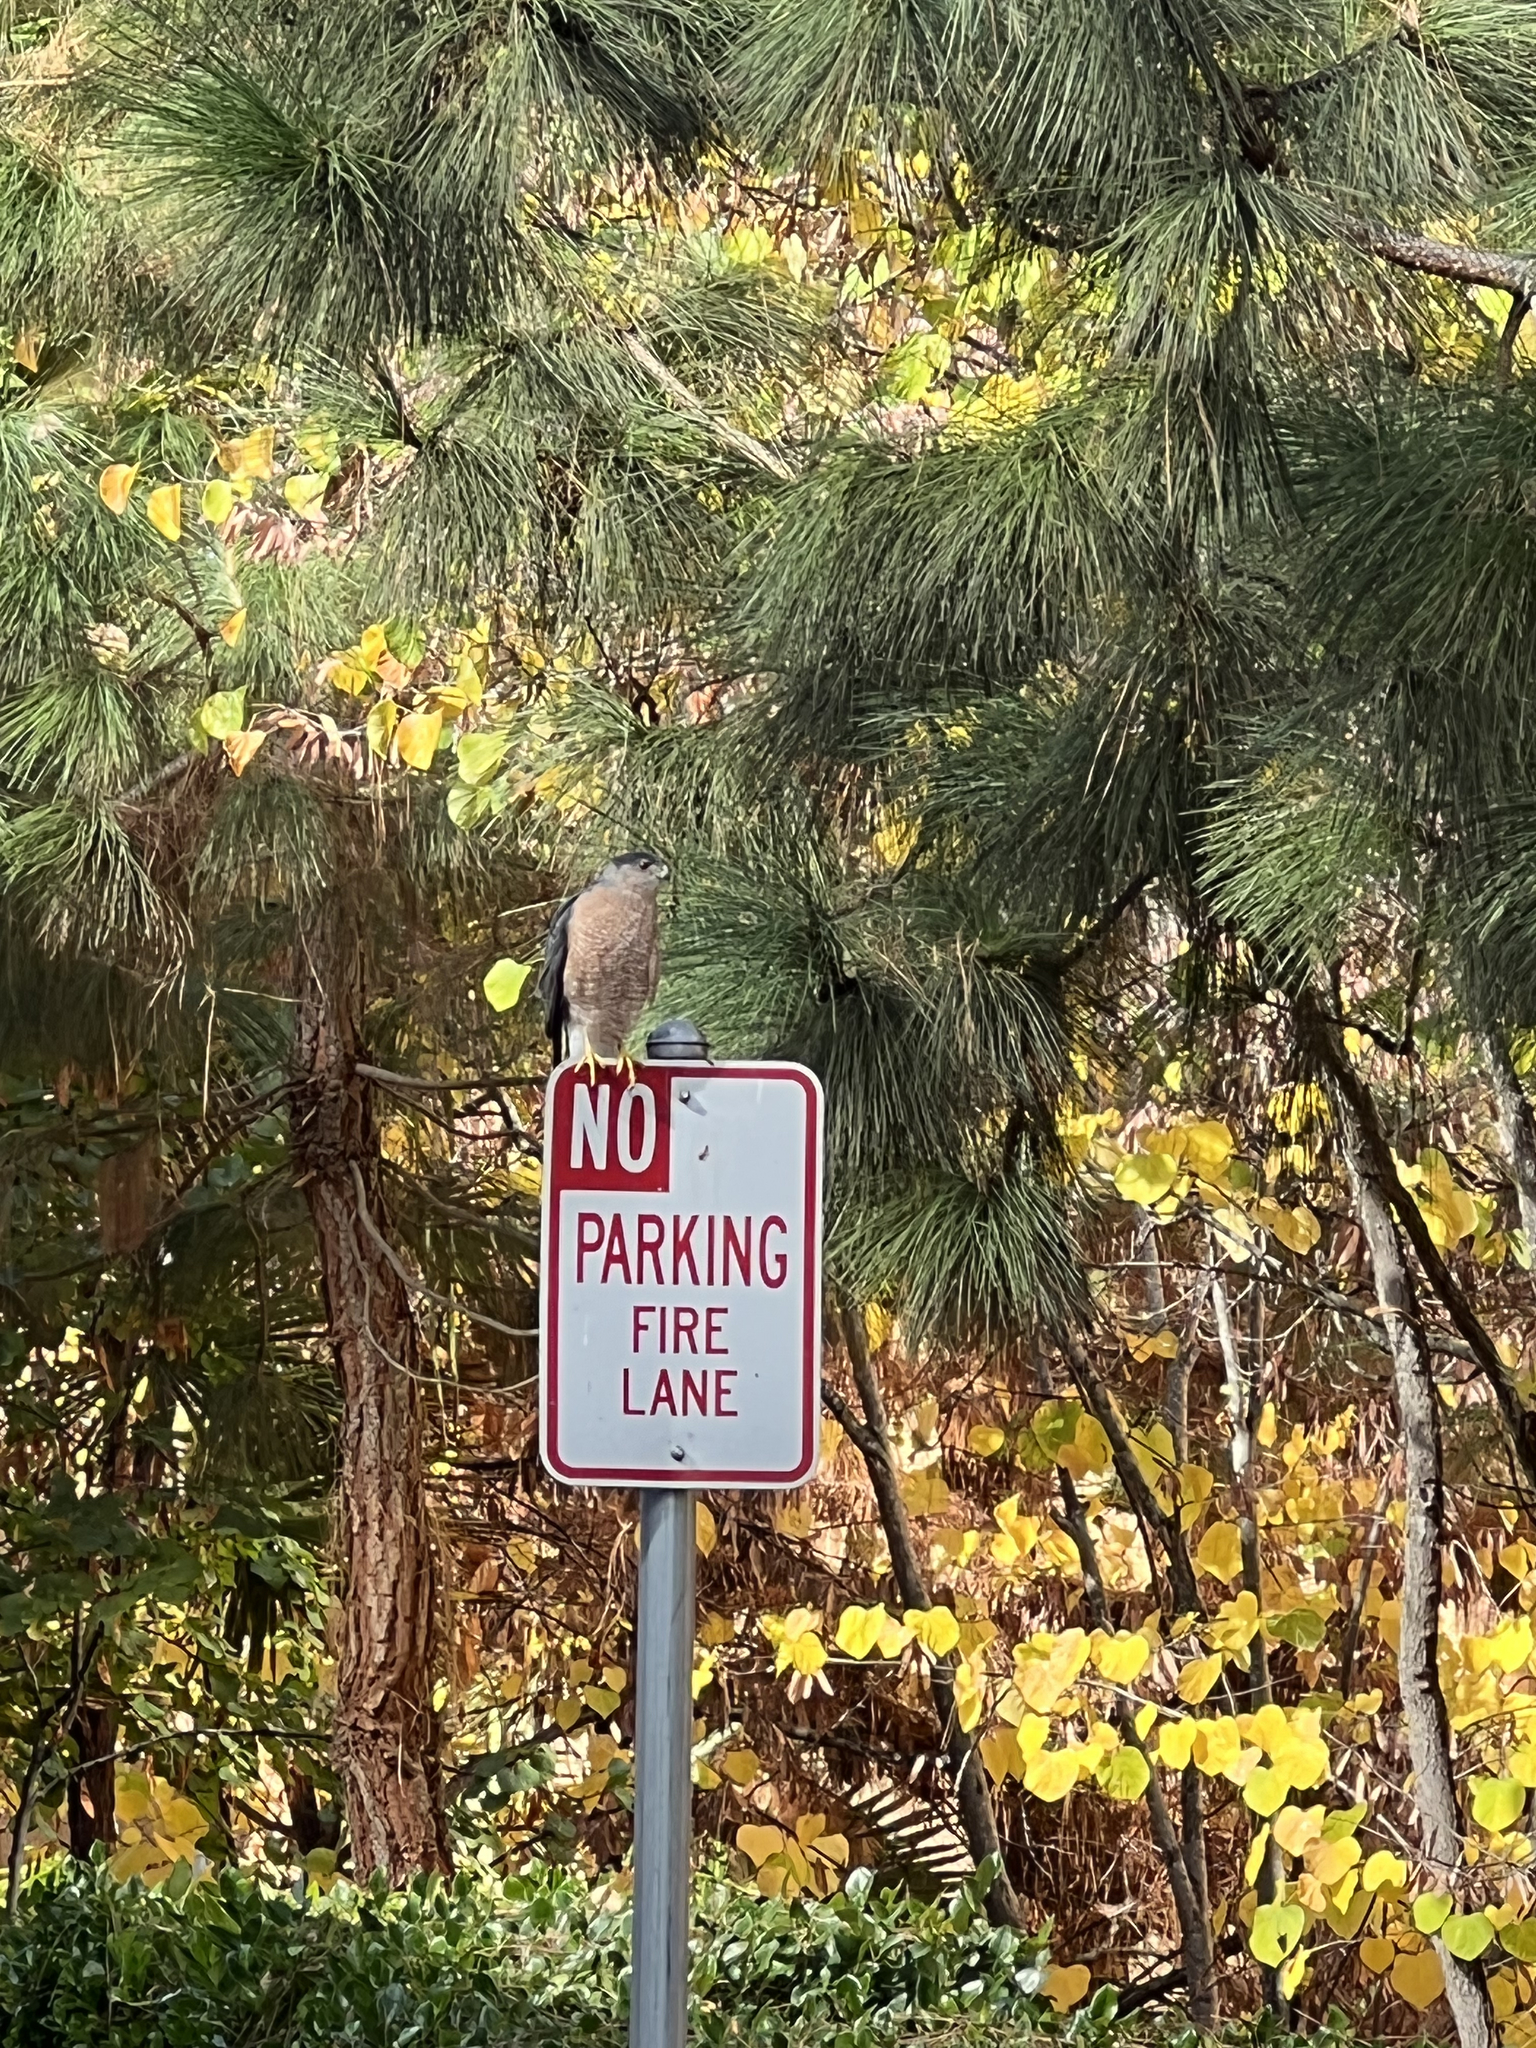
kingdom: Animalia
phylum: Chordata
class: Aves
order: Accipitriformes
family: Accipitridae
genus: Accipiter
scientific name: Accipiter cooperii
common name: Cooper's hawk
